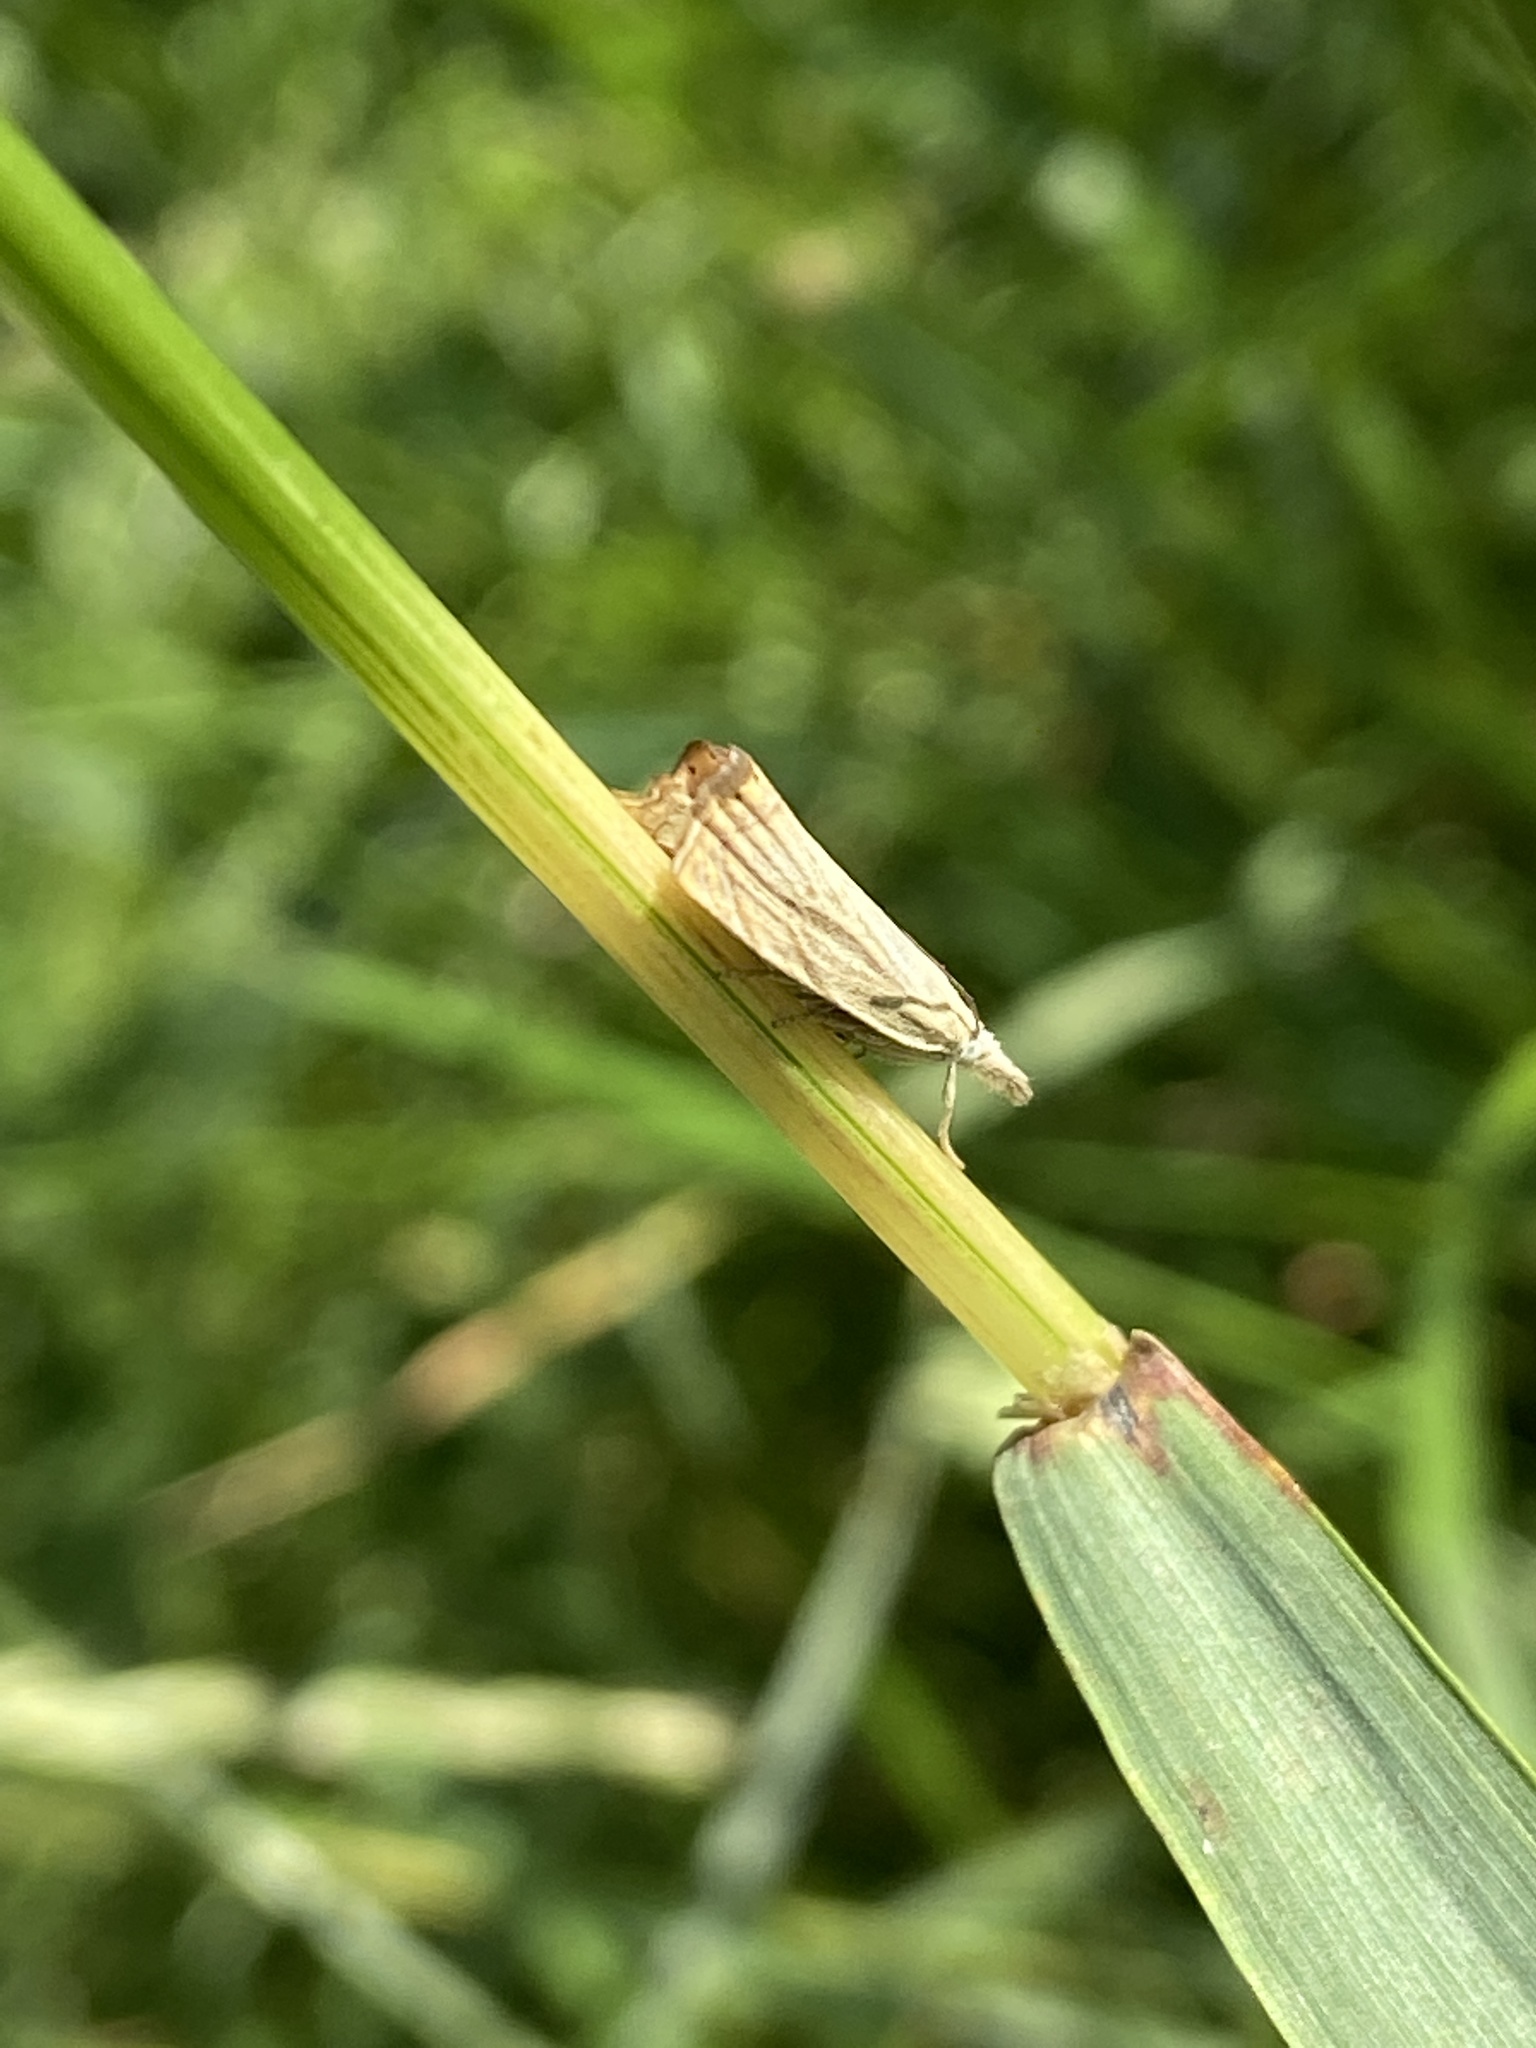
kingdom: Animalia
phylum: Arthropoda
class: Insecta
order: Lepidoptera
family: Crambidae
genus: Chrysoteuchia
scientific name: Chrysoteuchia culmella
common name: Garden grass-veneer
